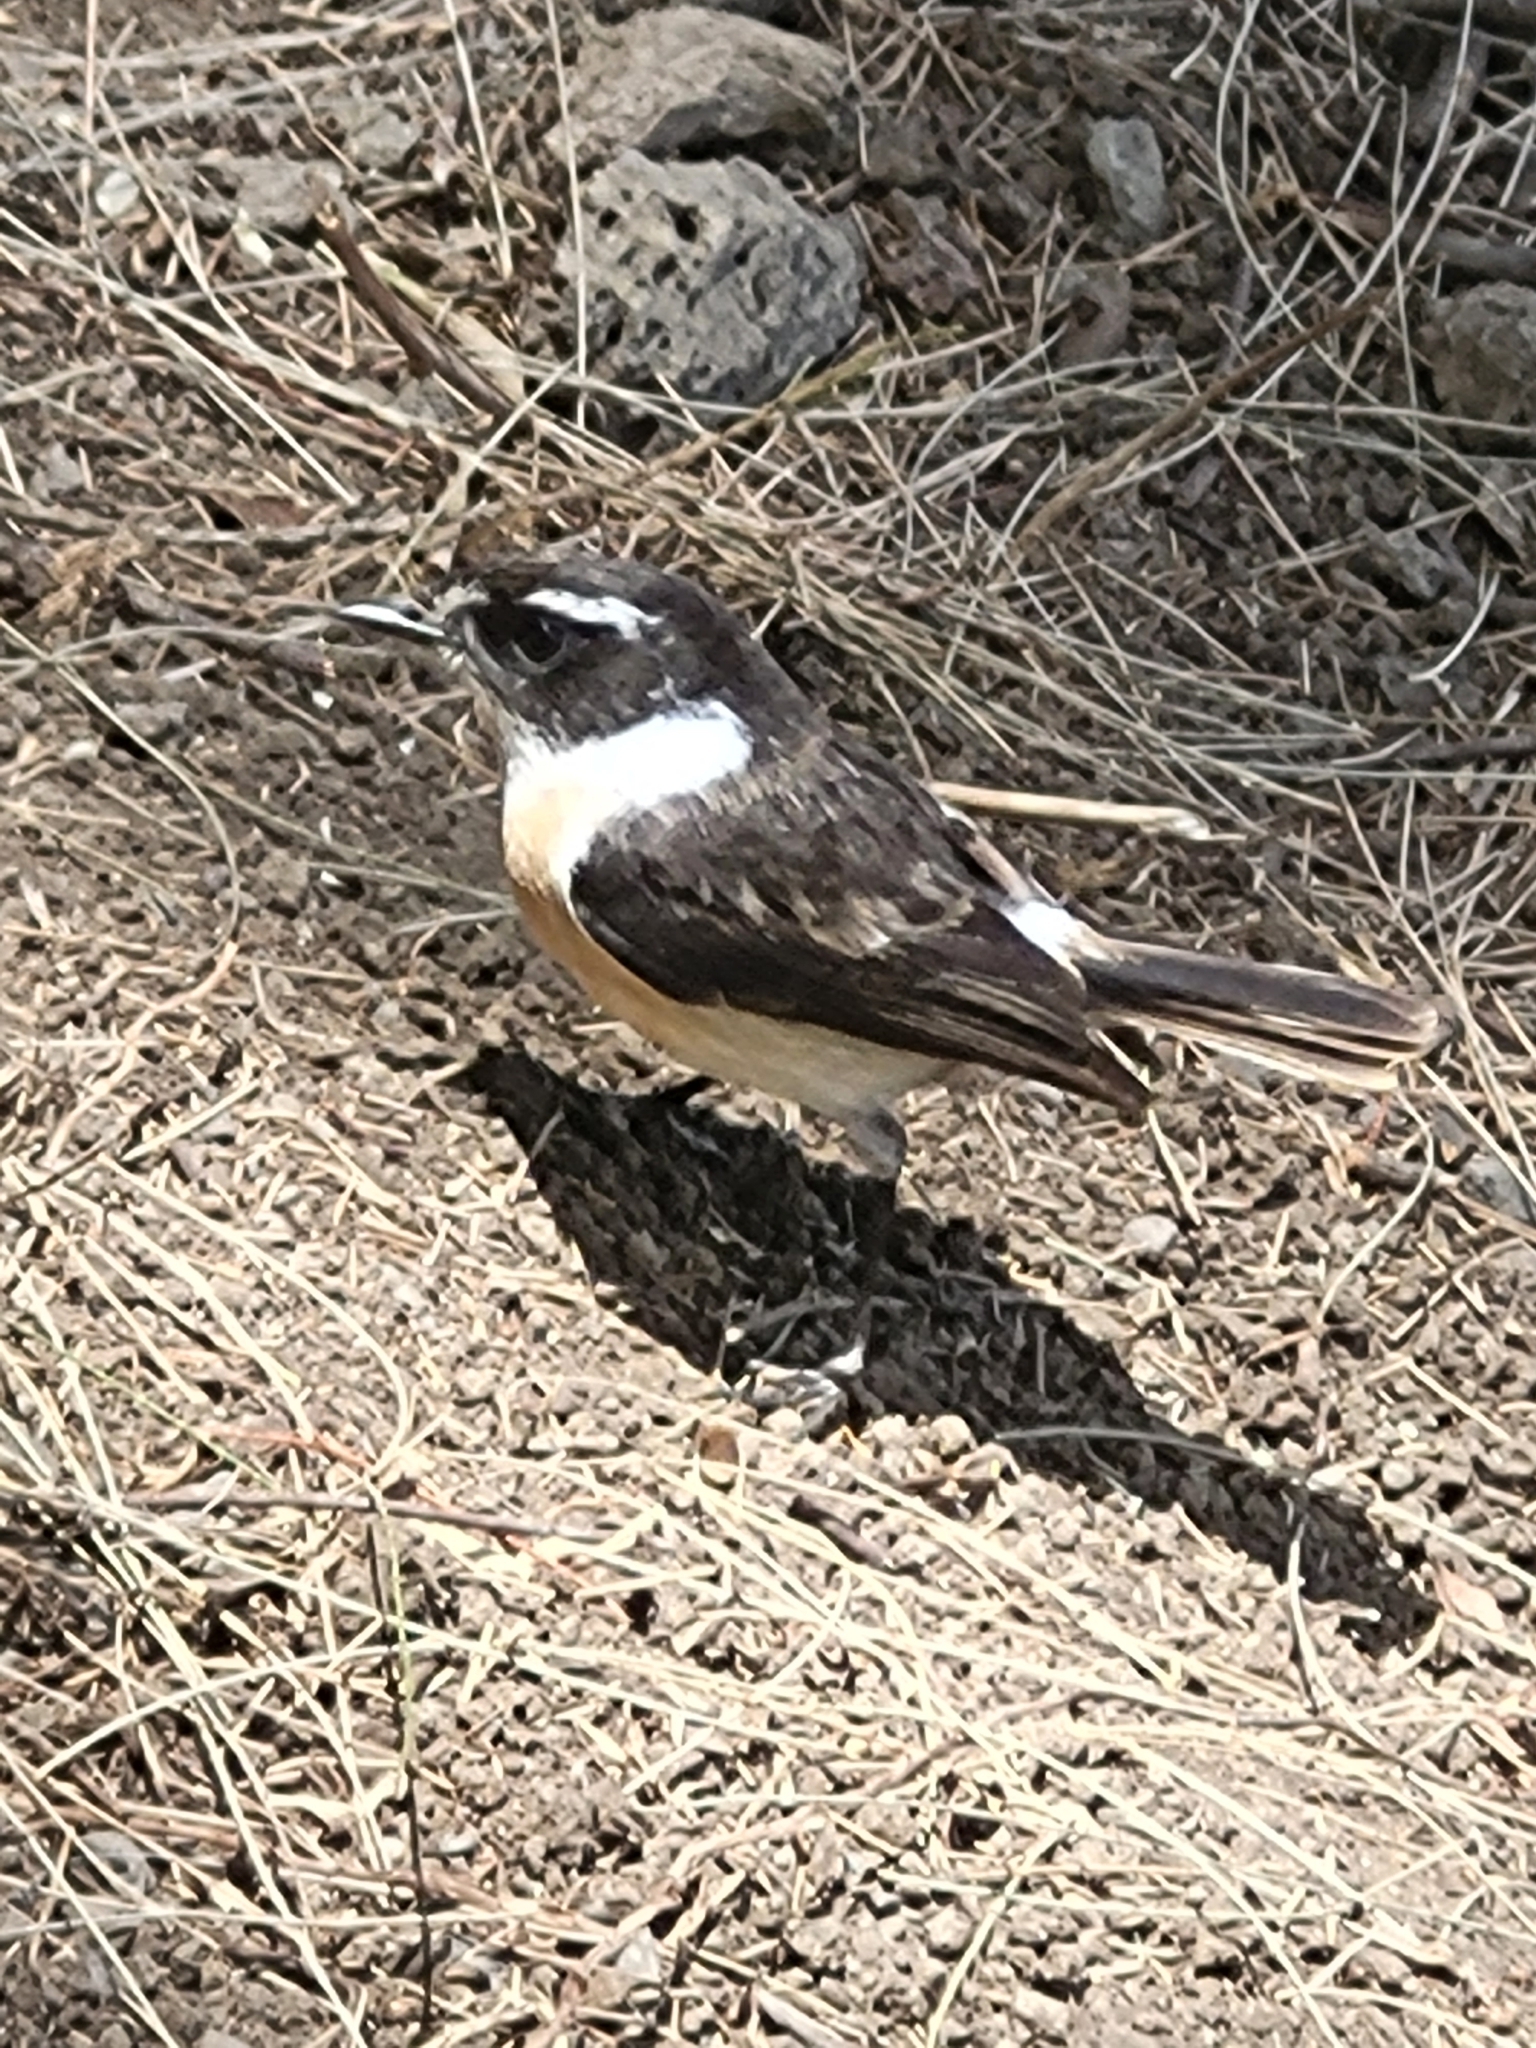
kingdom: Animalia
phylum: Chordata
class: Aves
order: Passeriformes
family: Muscicapidae
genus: Saxicola
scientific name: Saxicola tectes
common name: Reunion stonechat
